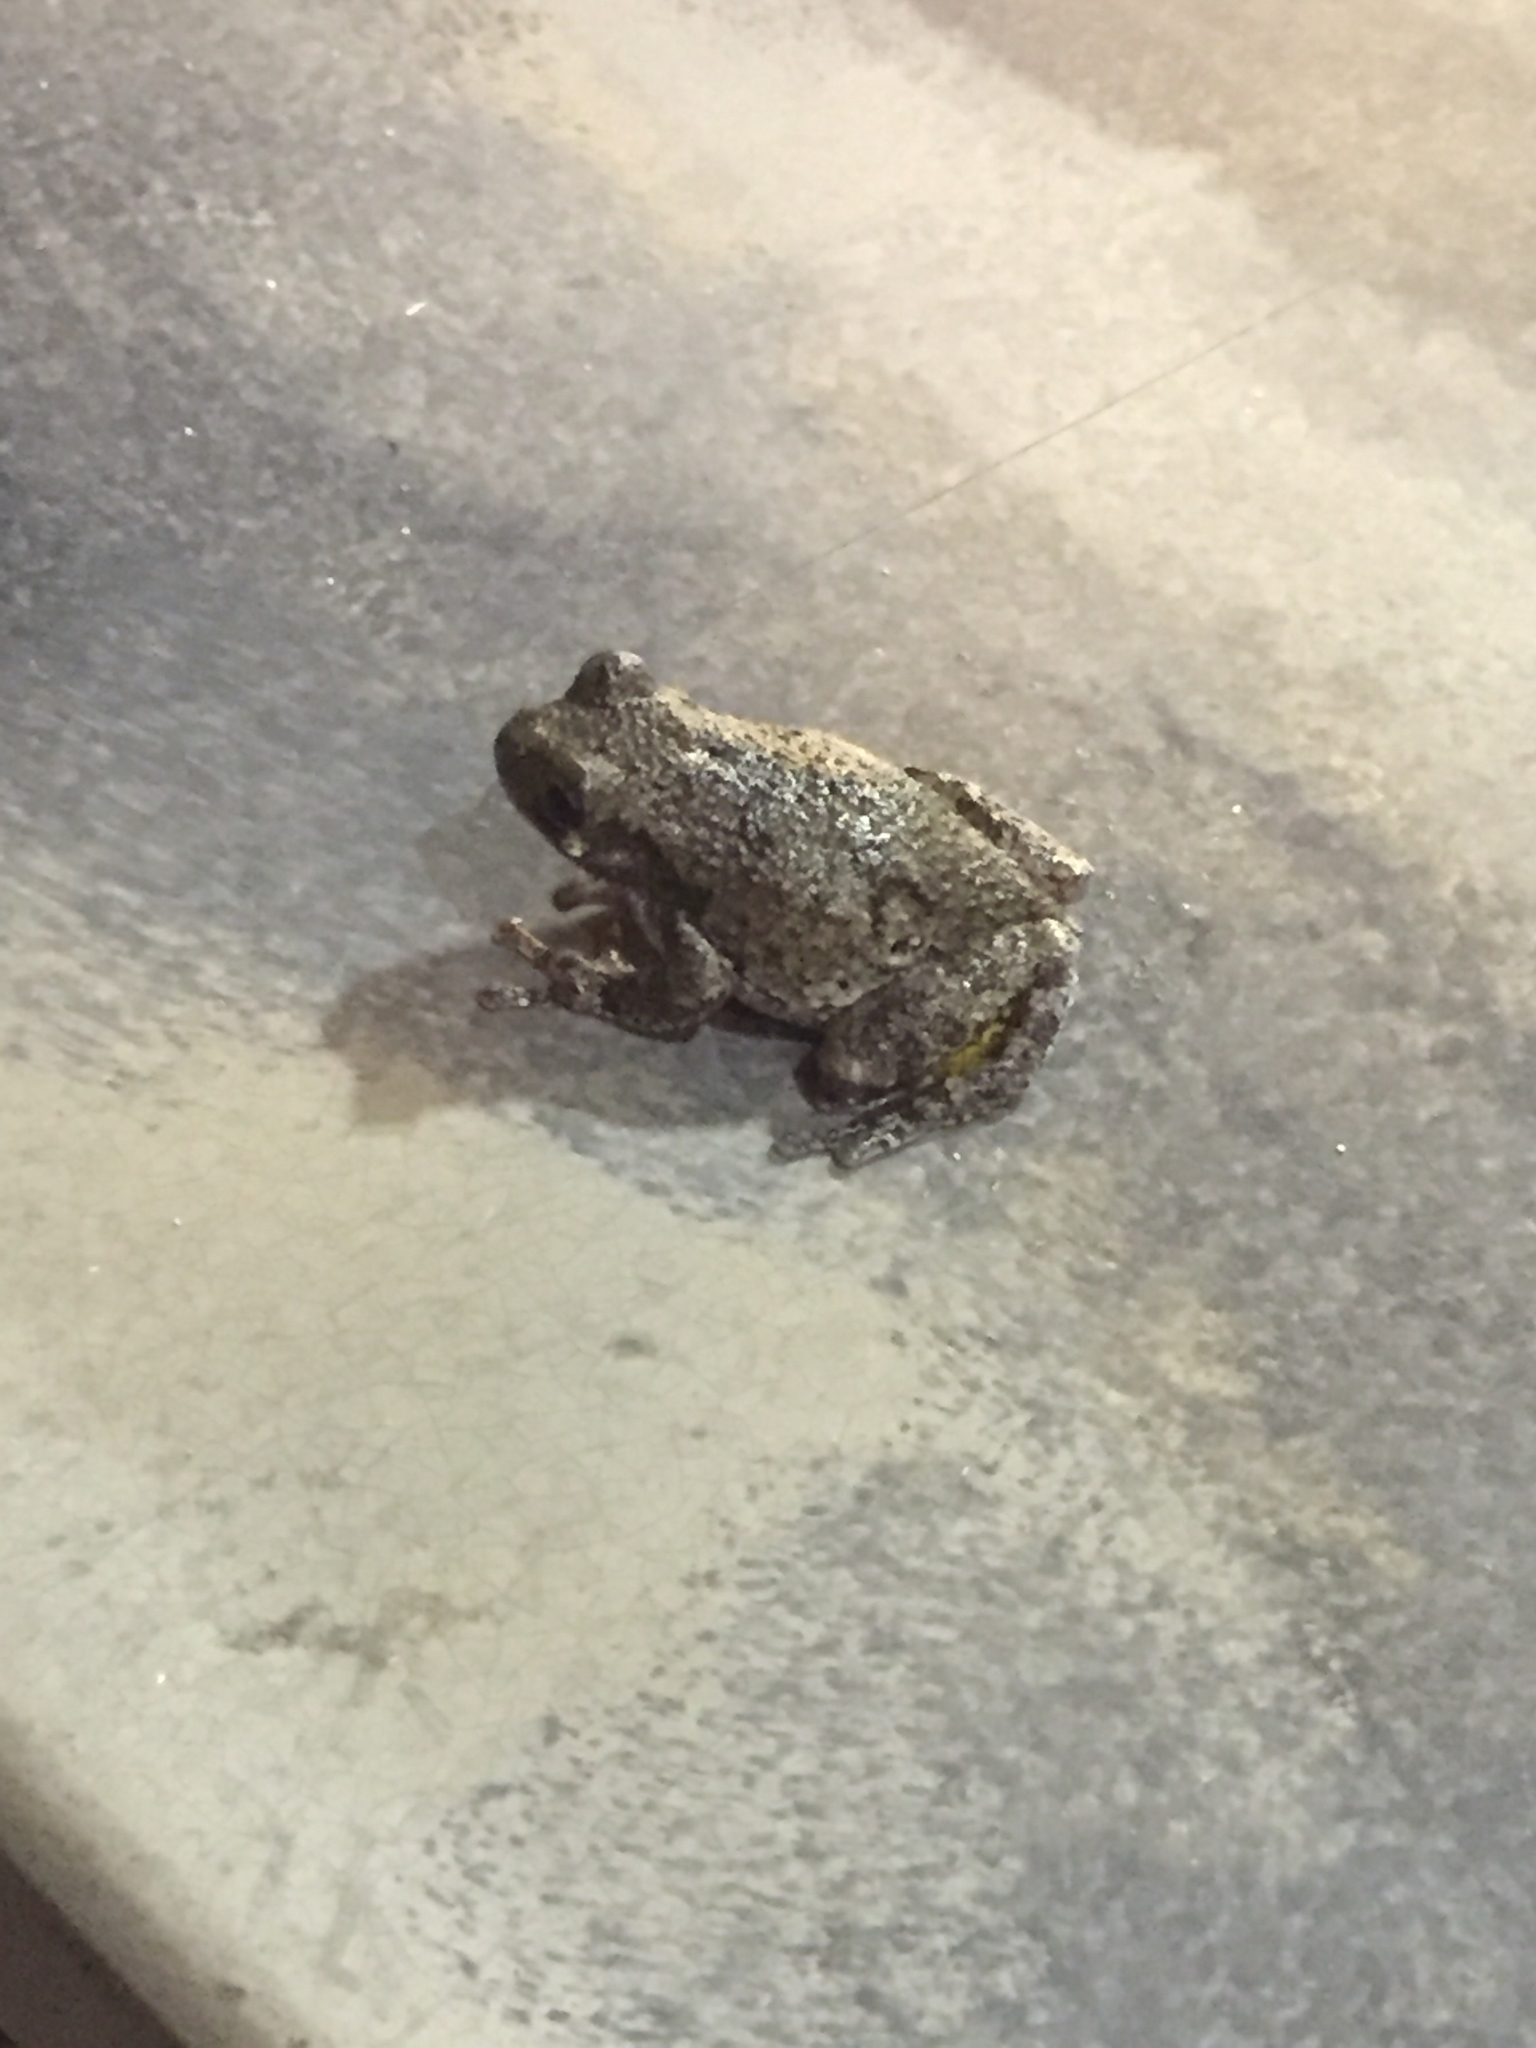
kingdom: Animalia
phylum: Chordata
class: Amphibia
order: Anura
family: Hylidae
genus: Hyla
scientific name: Hyla
